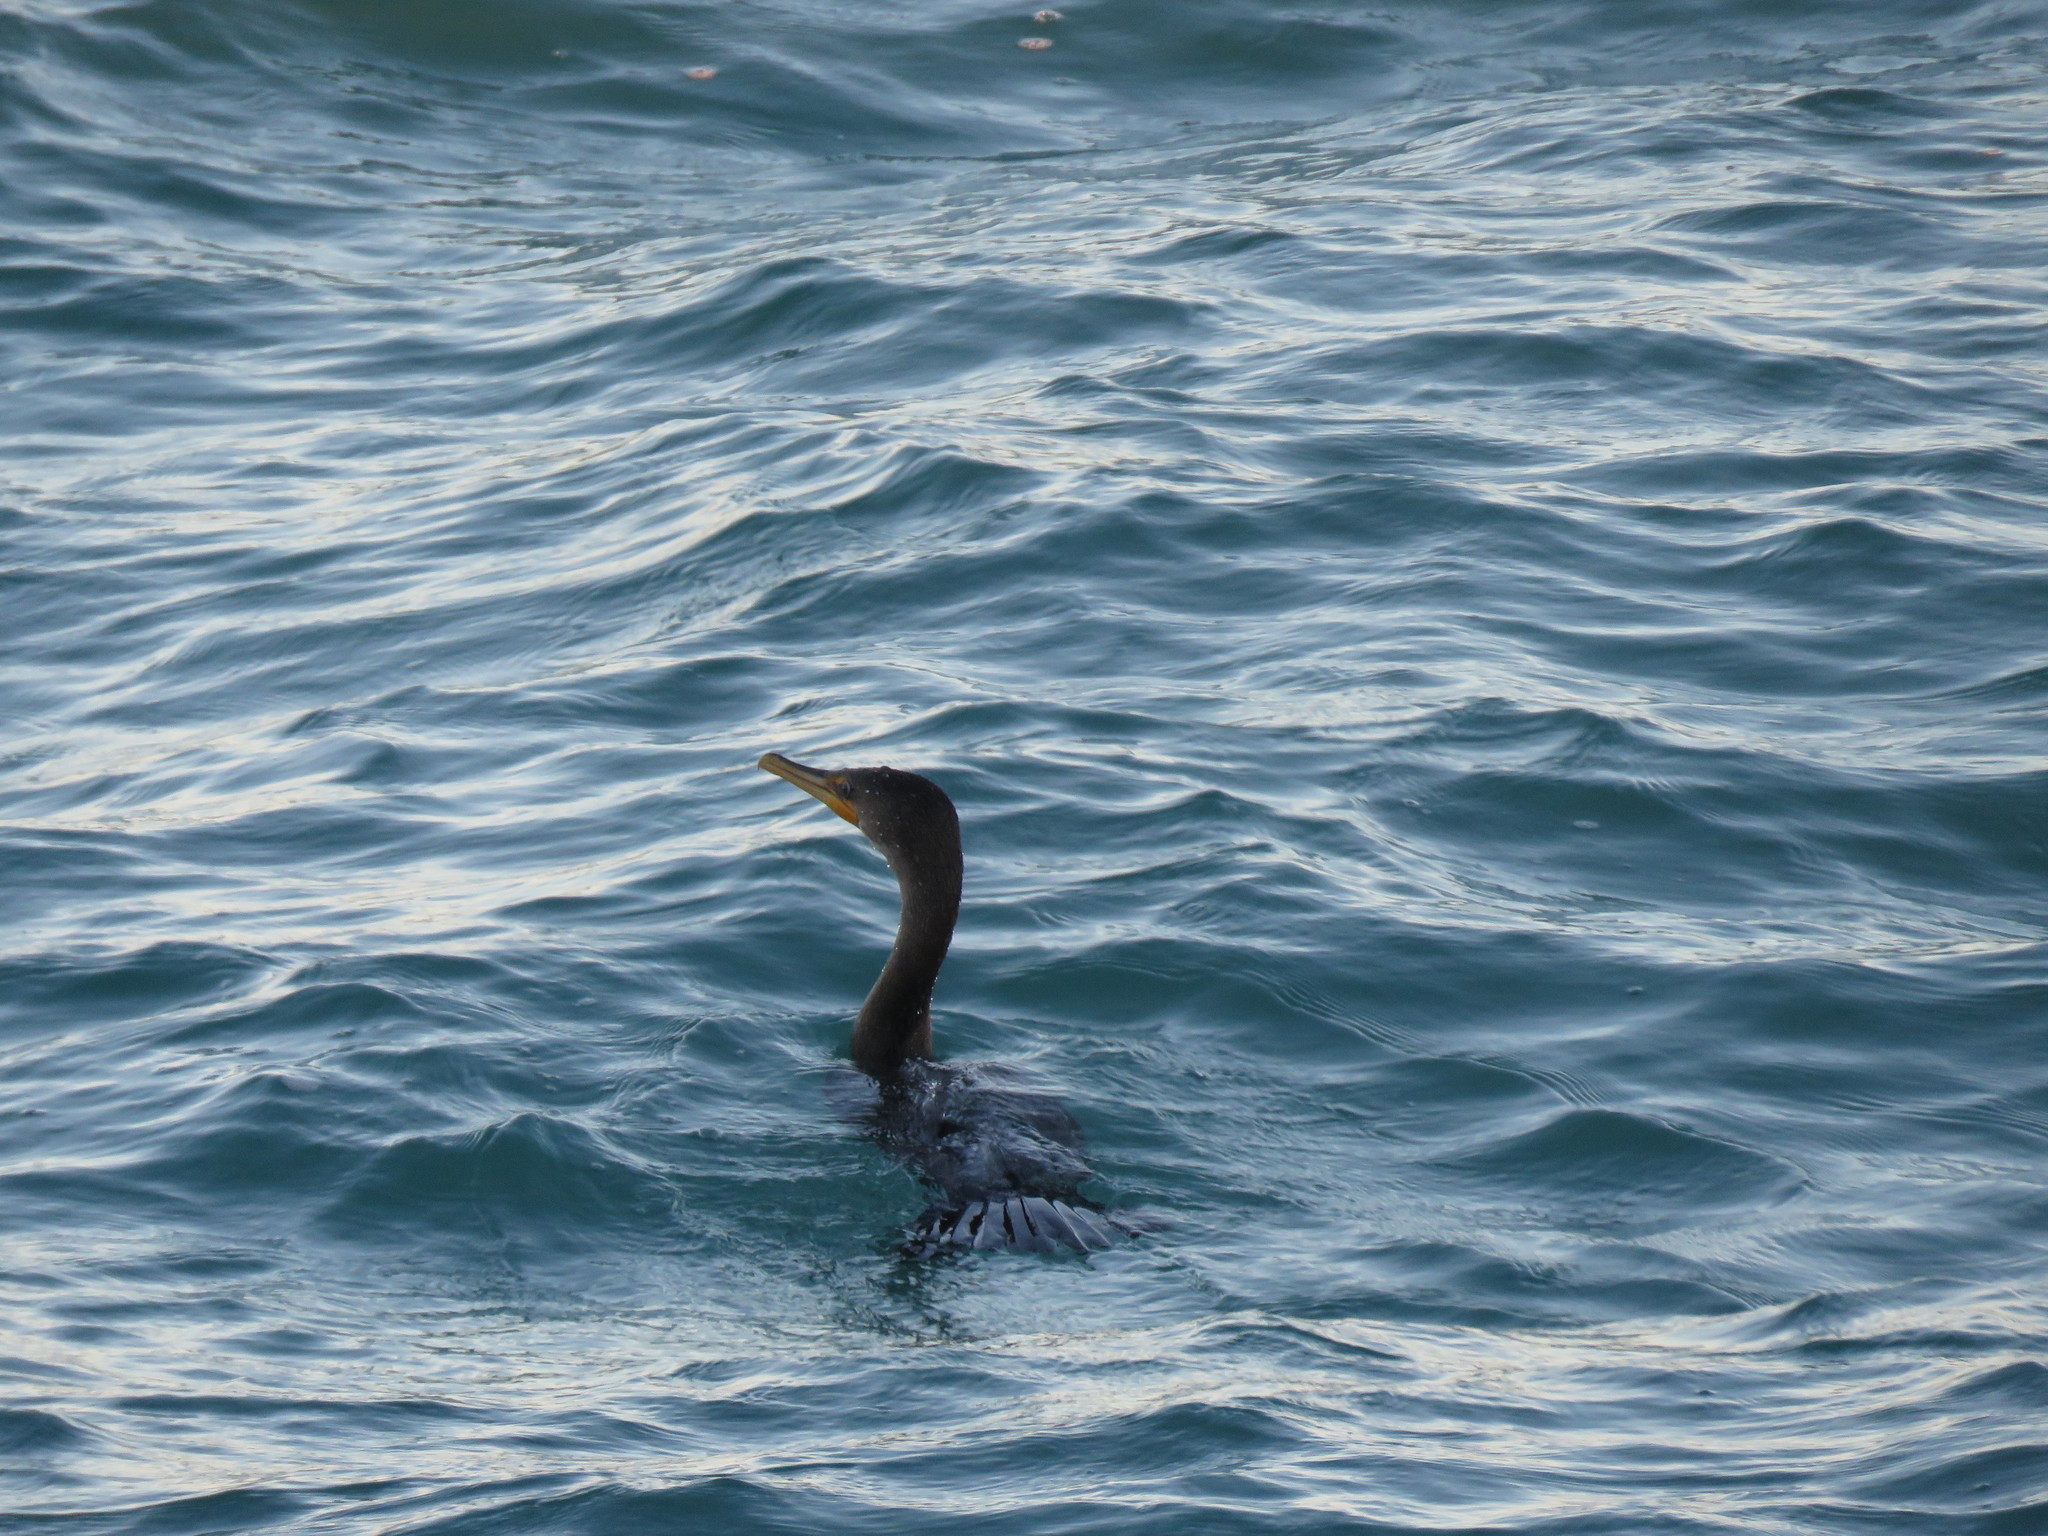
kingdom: Animalia
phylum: Chordata
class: Aves
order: Suliformes
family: Phalacrocoracidae
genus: Phalacrocorax
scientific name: Phalacrocorax auritus
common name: Double-crested cormorant
